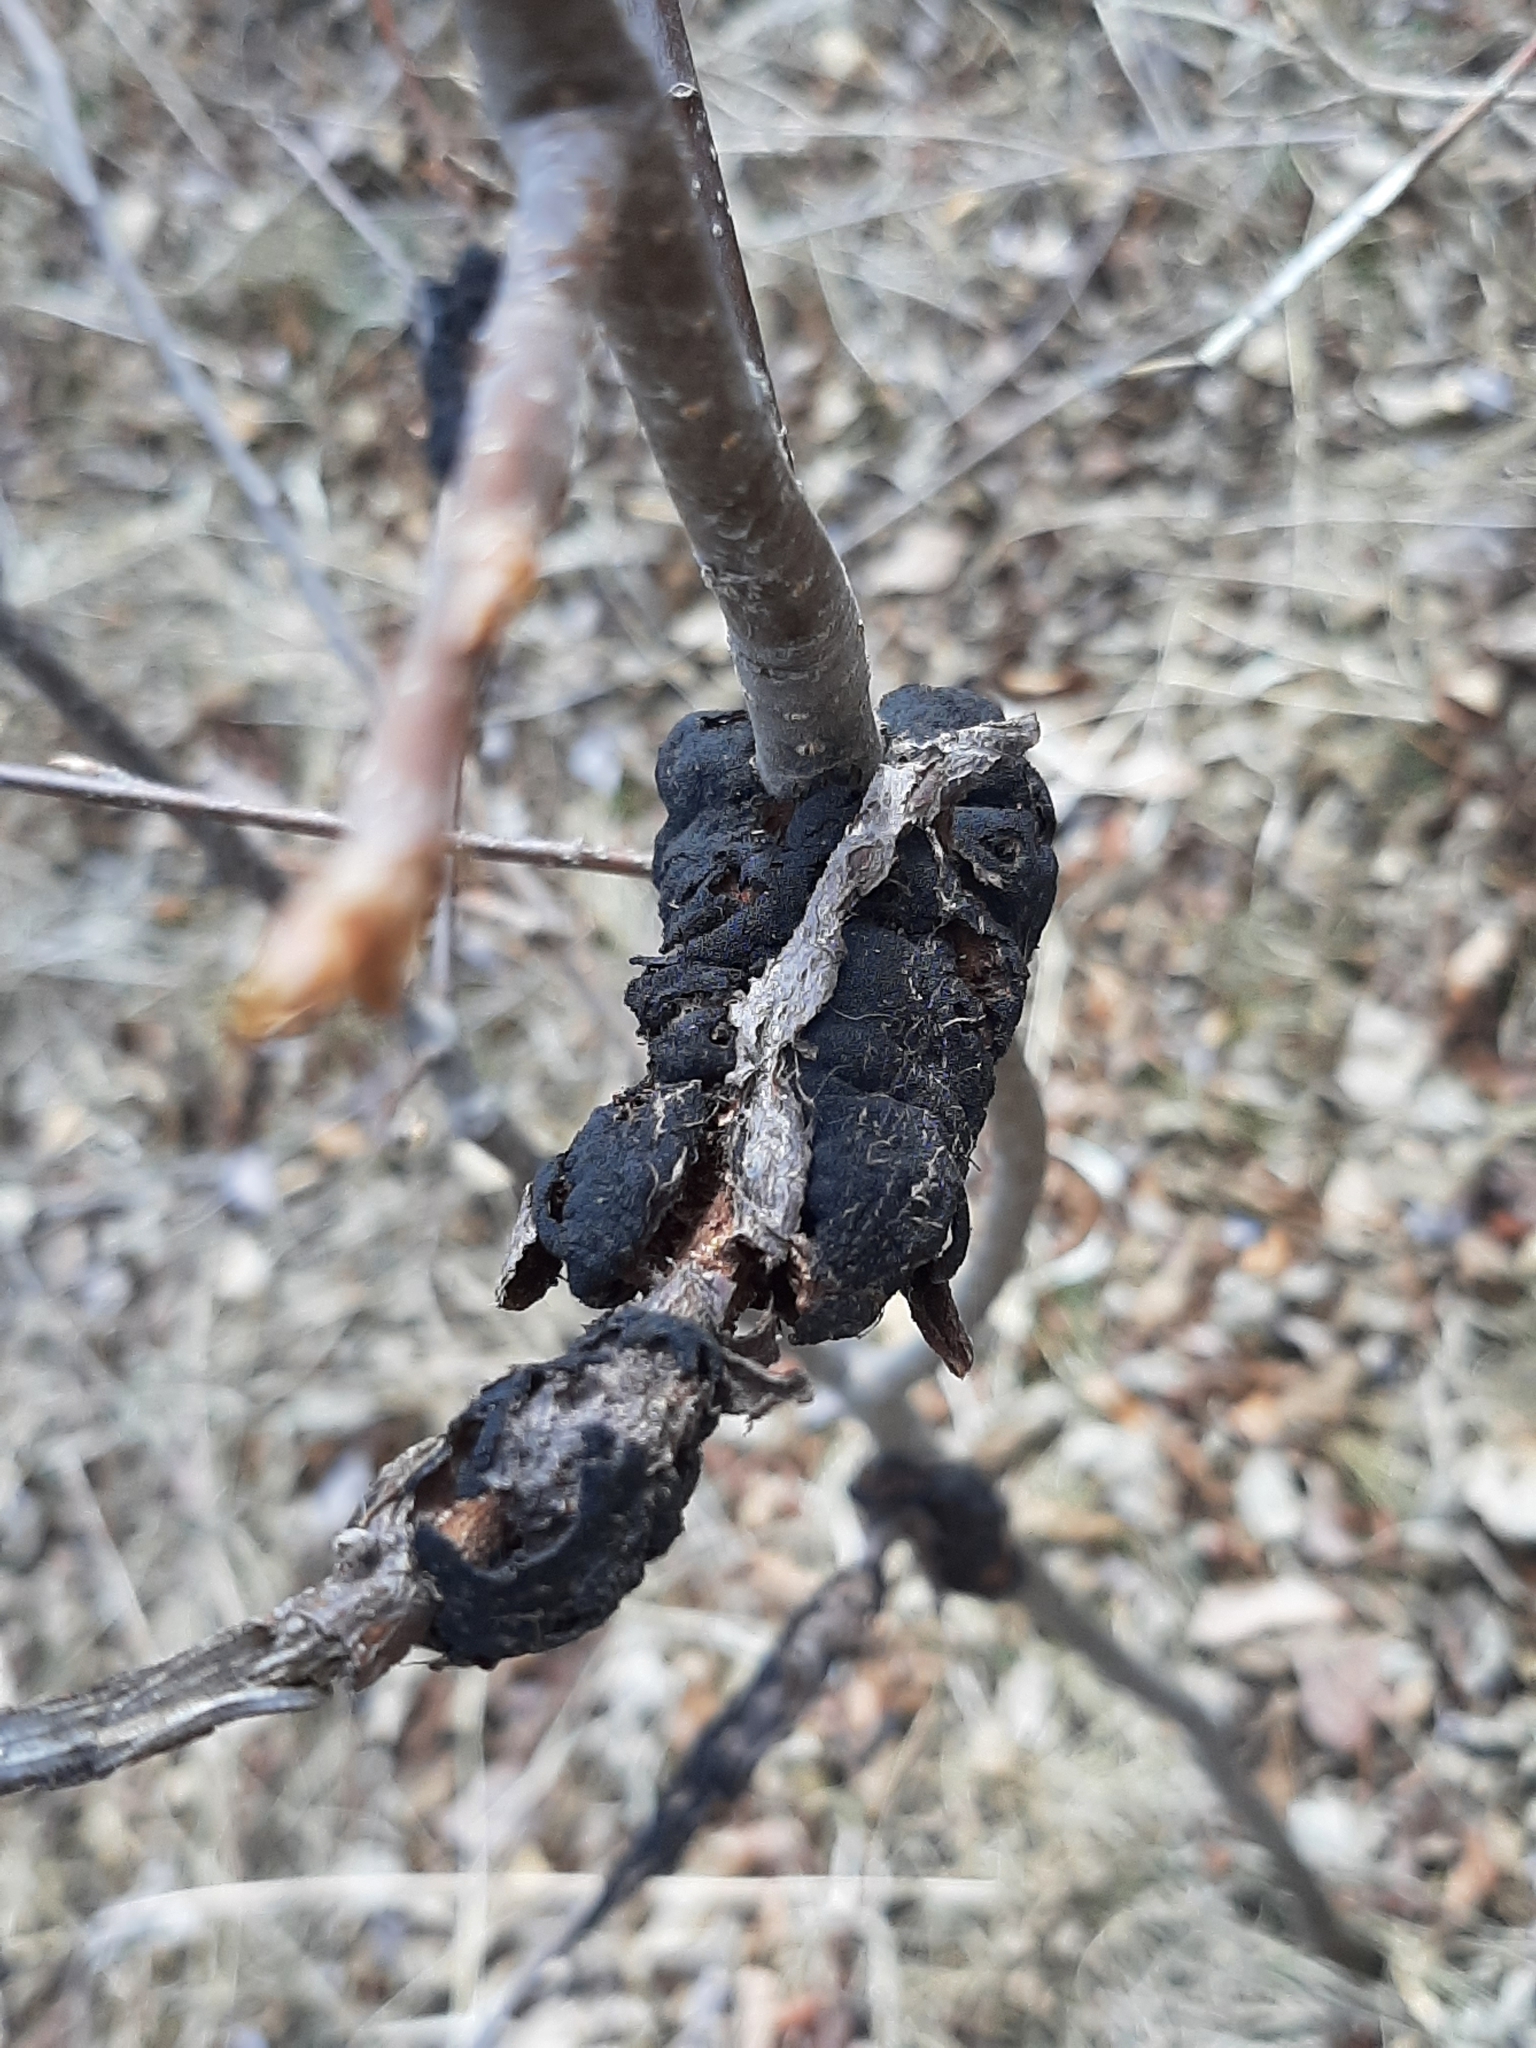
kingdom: Fungi
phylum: Ascomycota
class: Dothideomycetes
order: Venturiales
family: Venturiaceae
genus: Apiosporina
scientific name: Apiosporina morbosa
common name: Black knot
